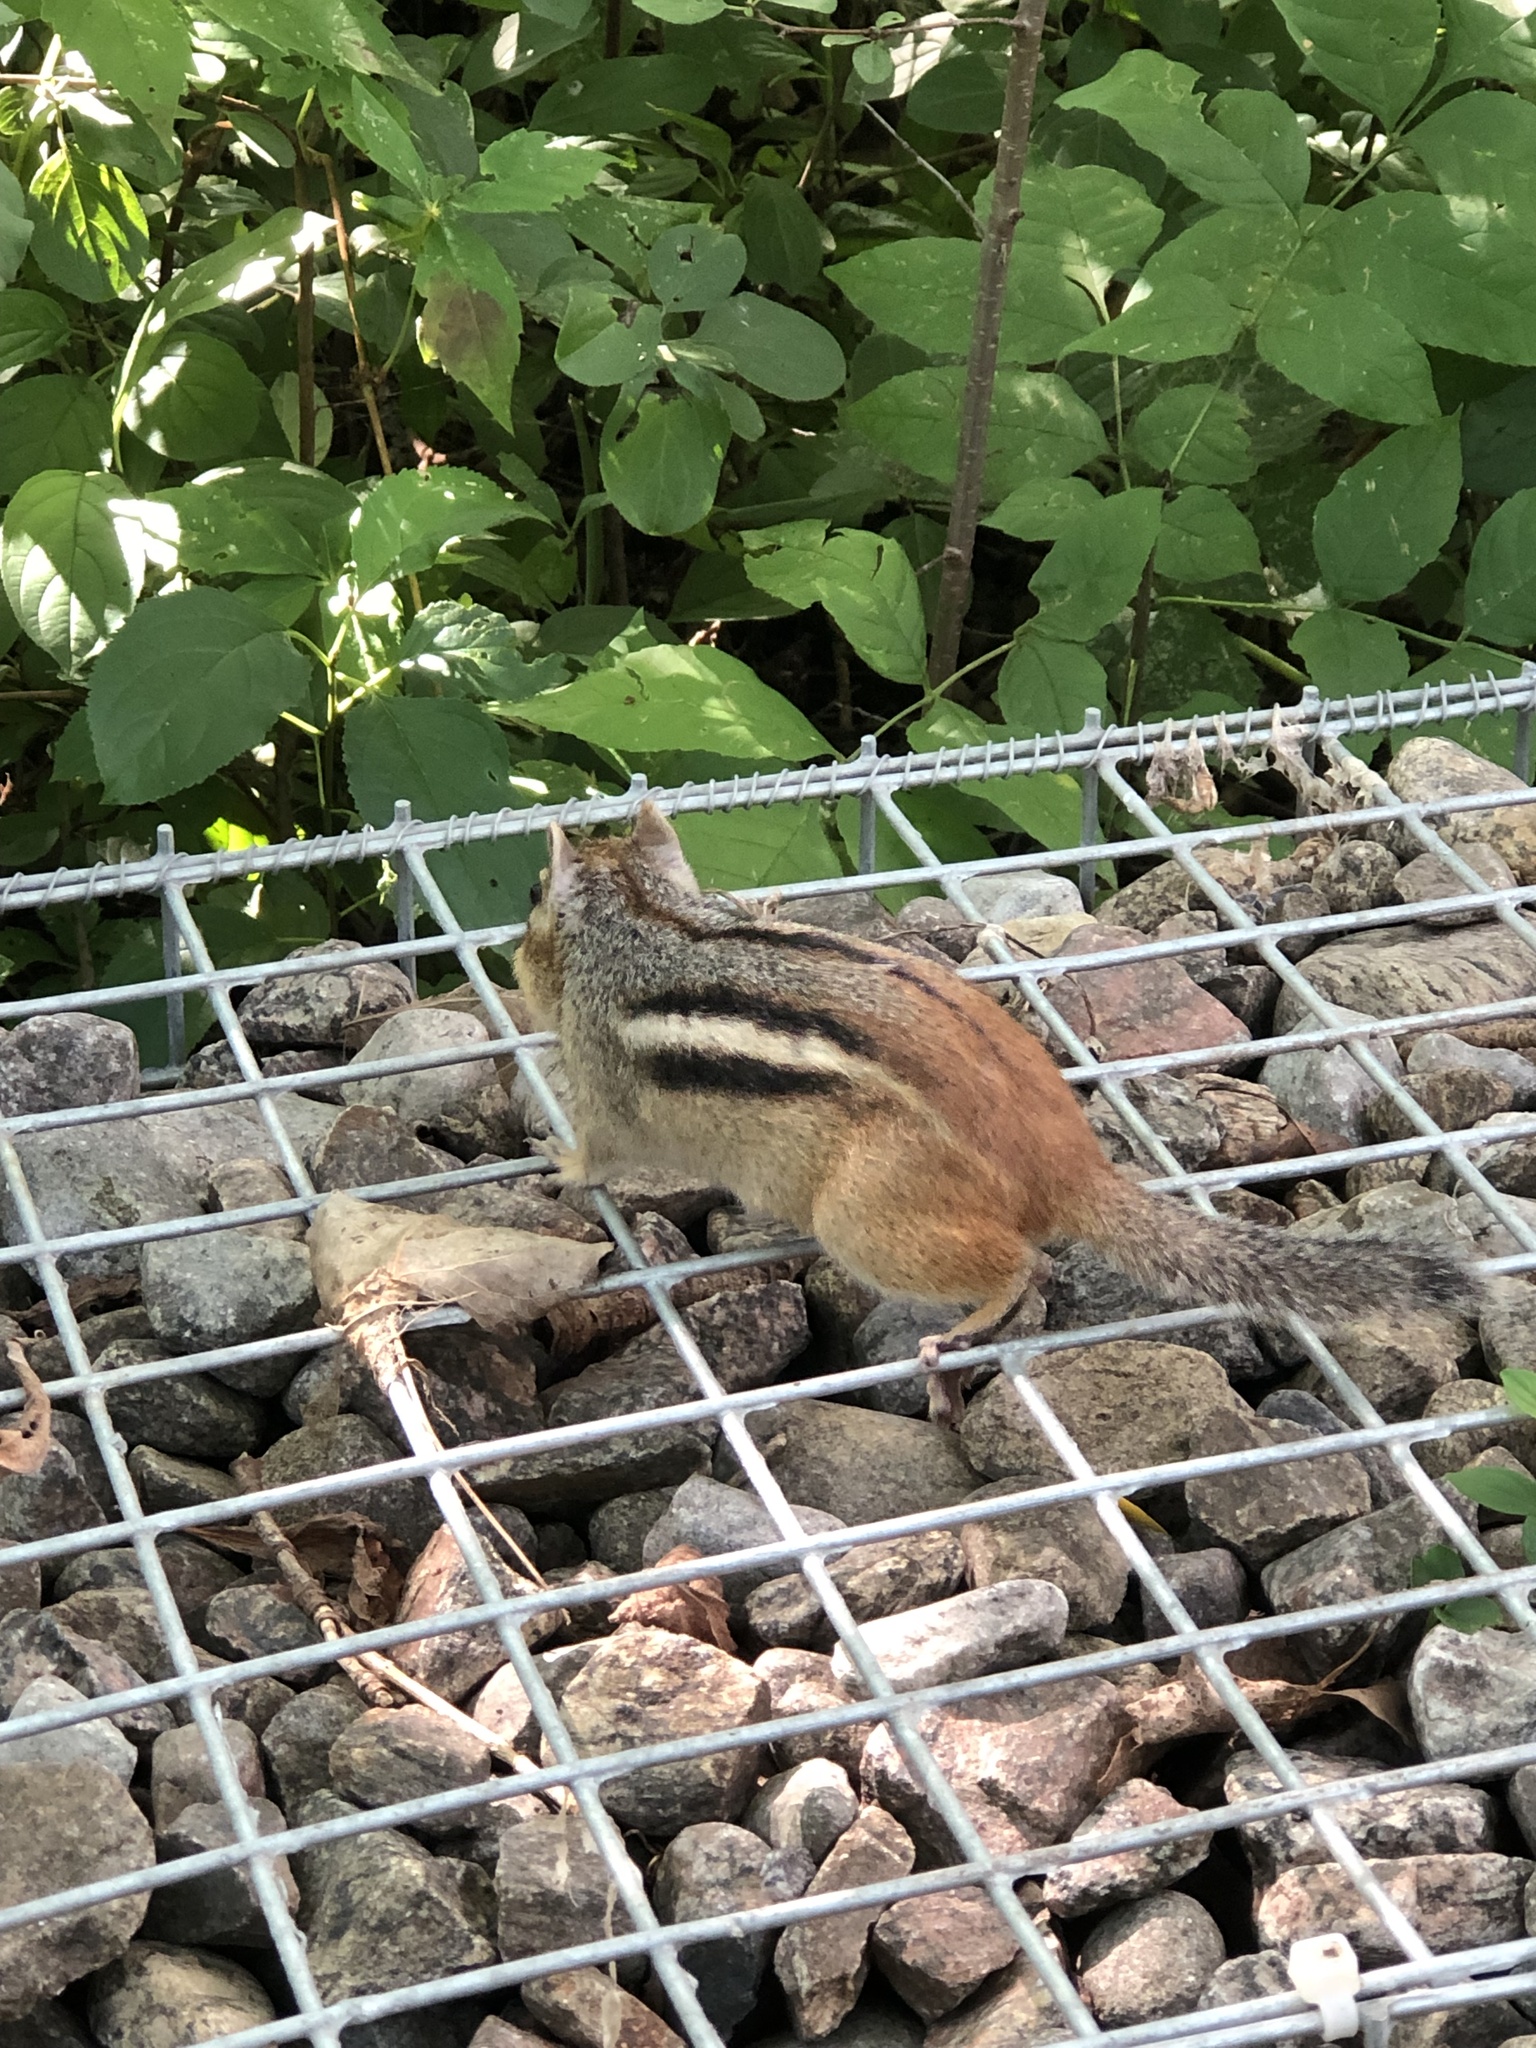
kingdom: Animalia
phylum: Chordata
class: Mammalia
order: Rodentia
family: Sciuridae
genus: Tamias
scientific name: Tamias striatus
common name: Eastern chipmunk
